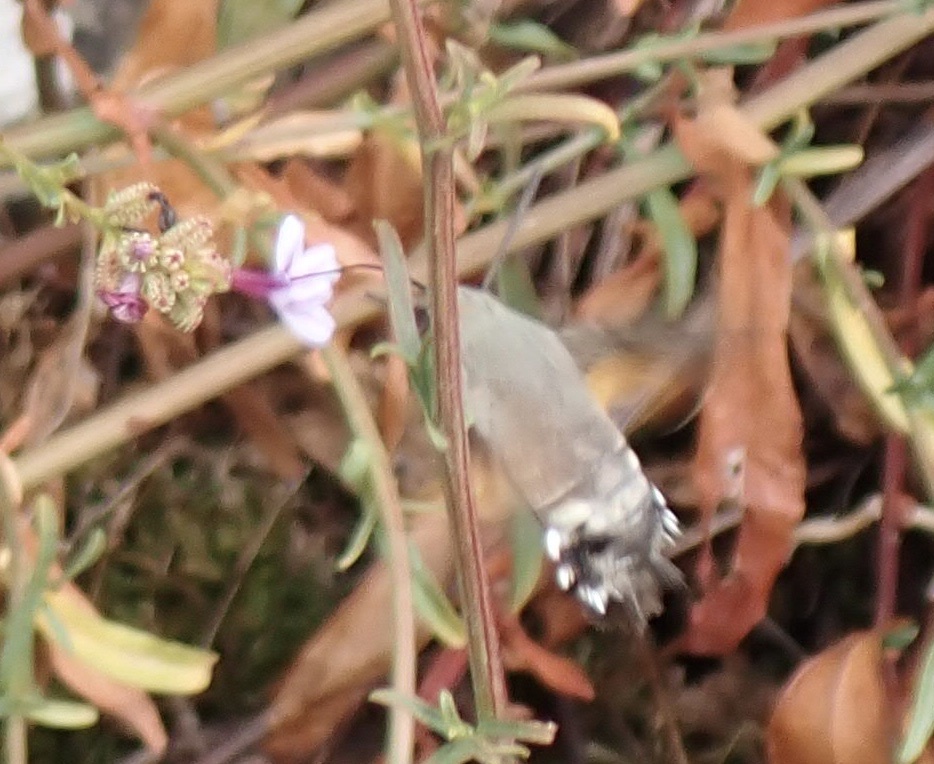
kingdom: Animalia
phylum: Arthropoda
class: Insecta
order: Lepidoptera
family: Sphingidae
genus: Macroglossum
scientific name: Macroglossum stellatarum
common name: Humming-bird hawk-moth
